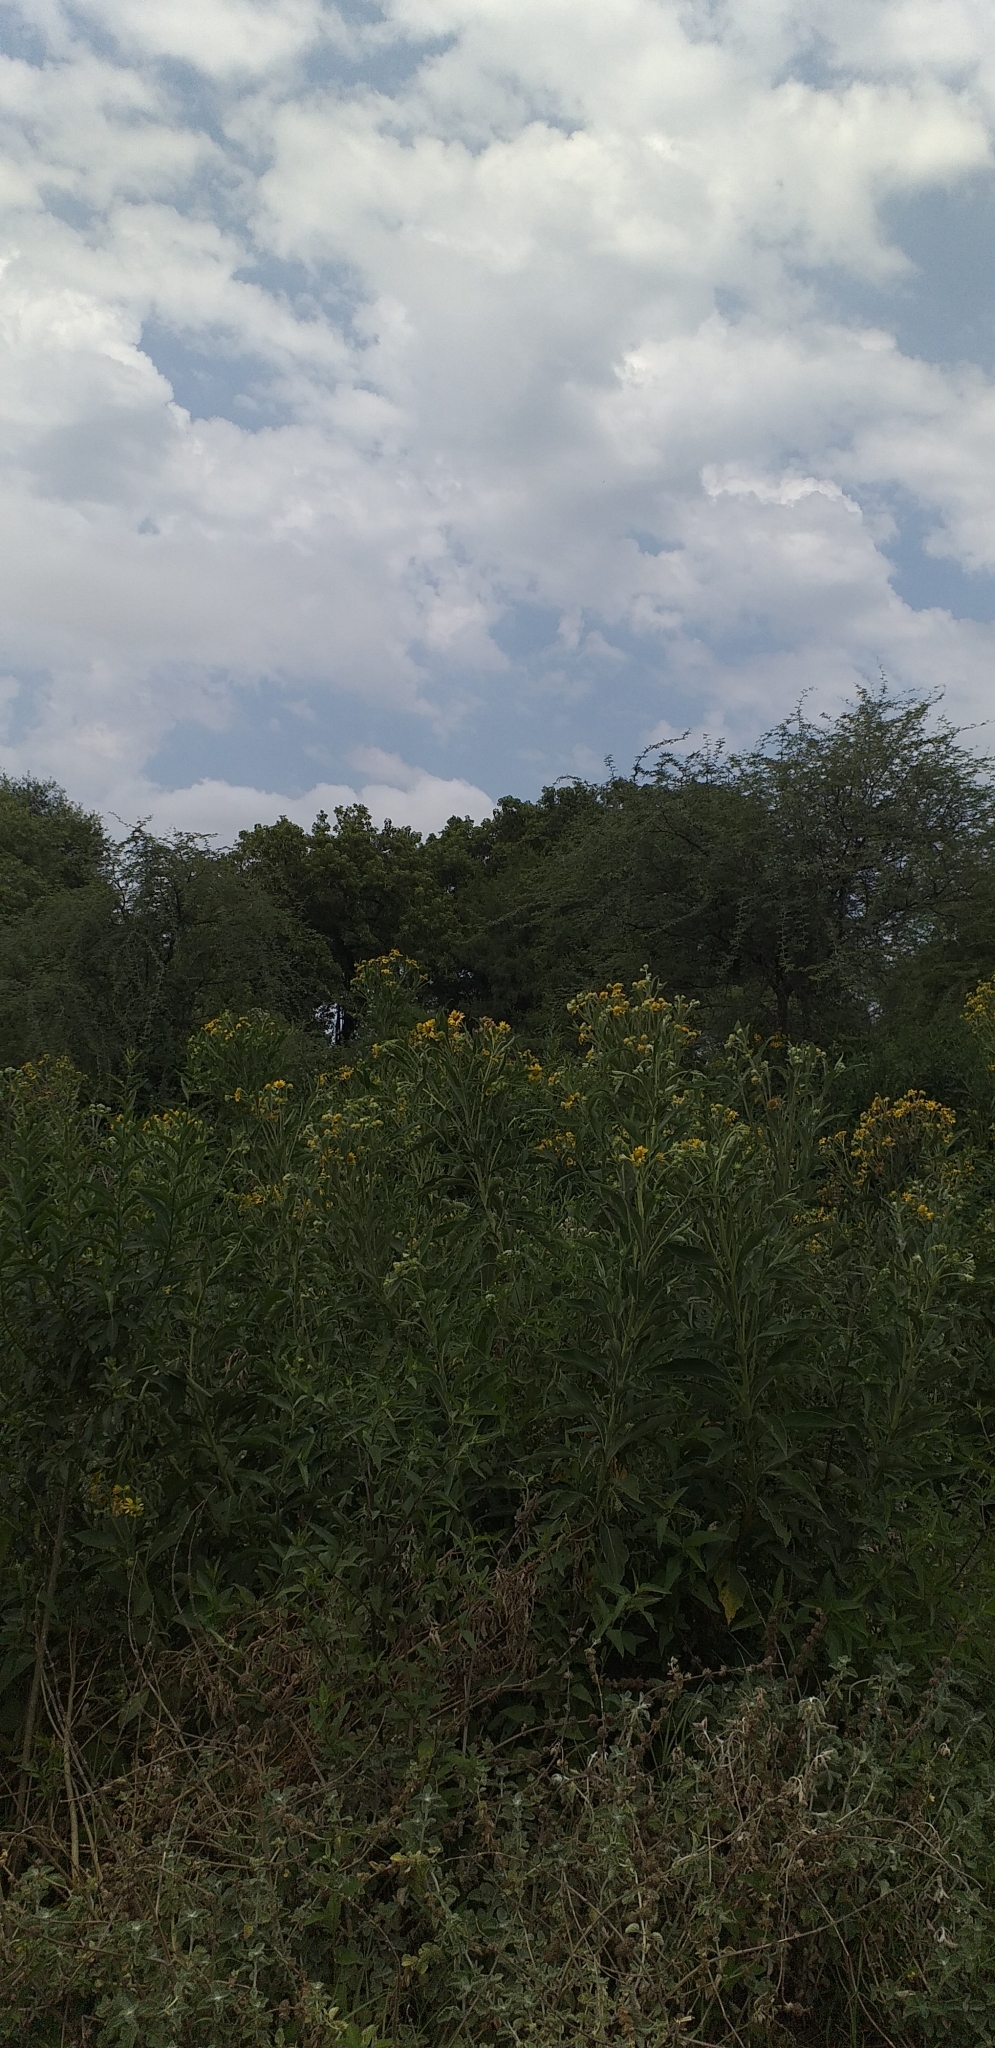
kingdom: Plantae
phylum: Tracheophyta
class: Magnoliopsida
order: Asterales
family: Asteraceae
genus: Verbesina
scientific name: Verbesina subcordata
